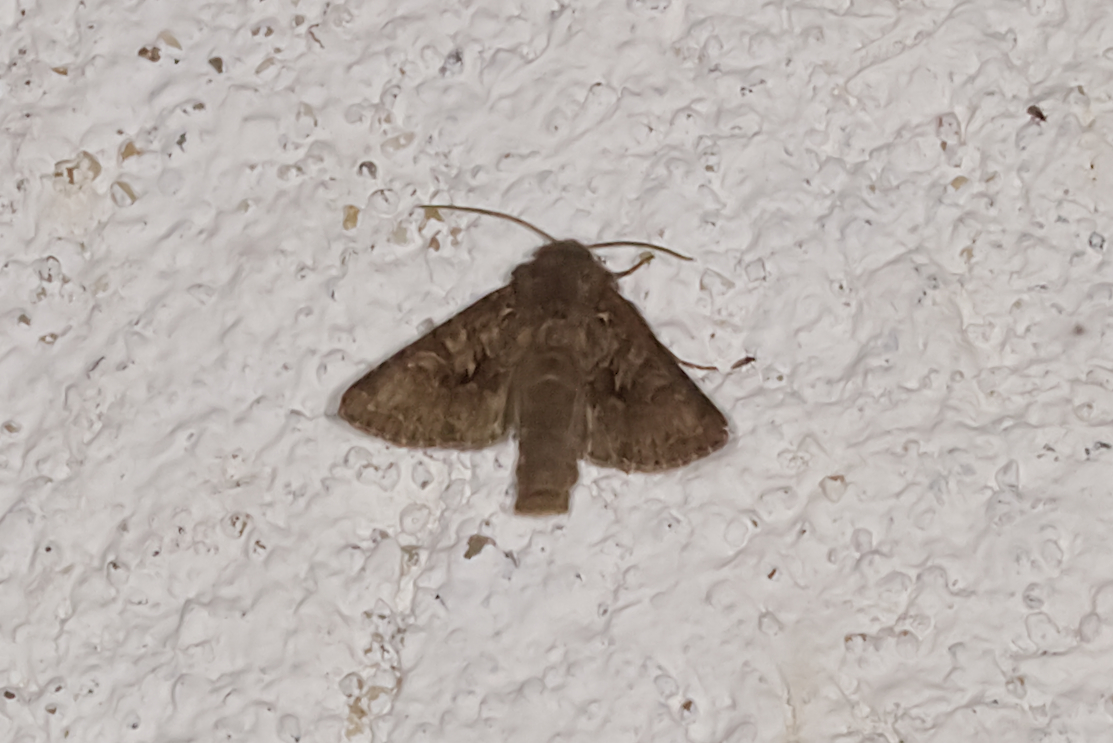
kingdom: Animalia
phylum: Arthropoda
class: Insecta
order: Lepidoptera
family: Noctuidae
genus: Hada
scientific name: Hada plebeja
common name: Shears
